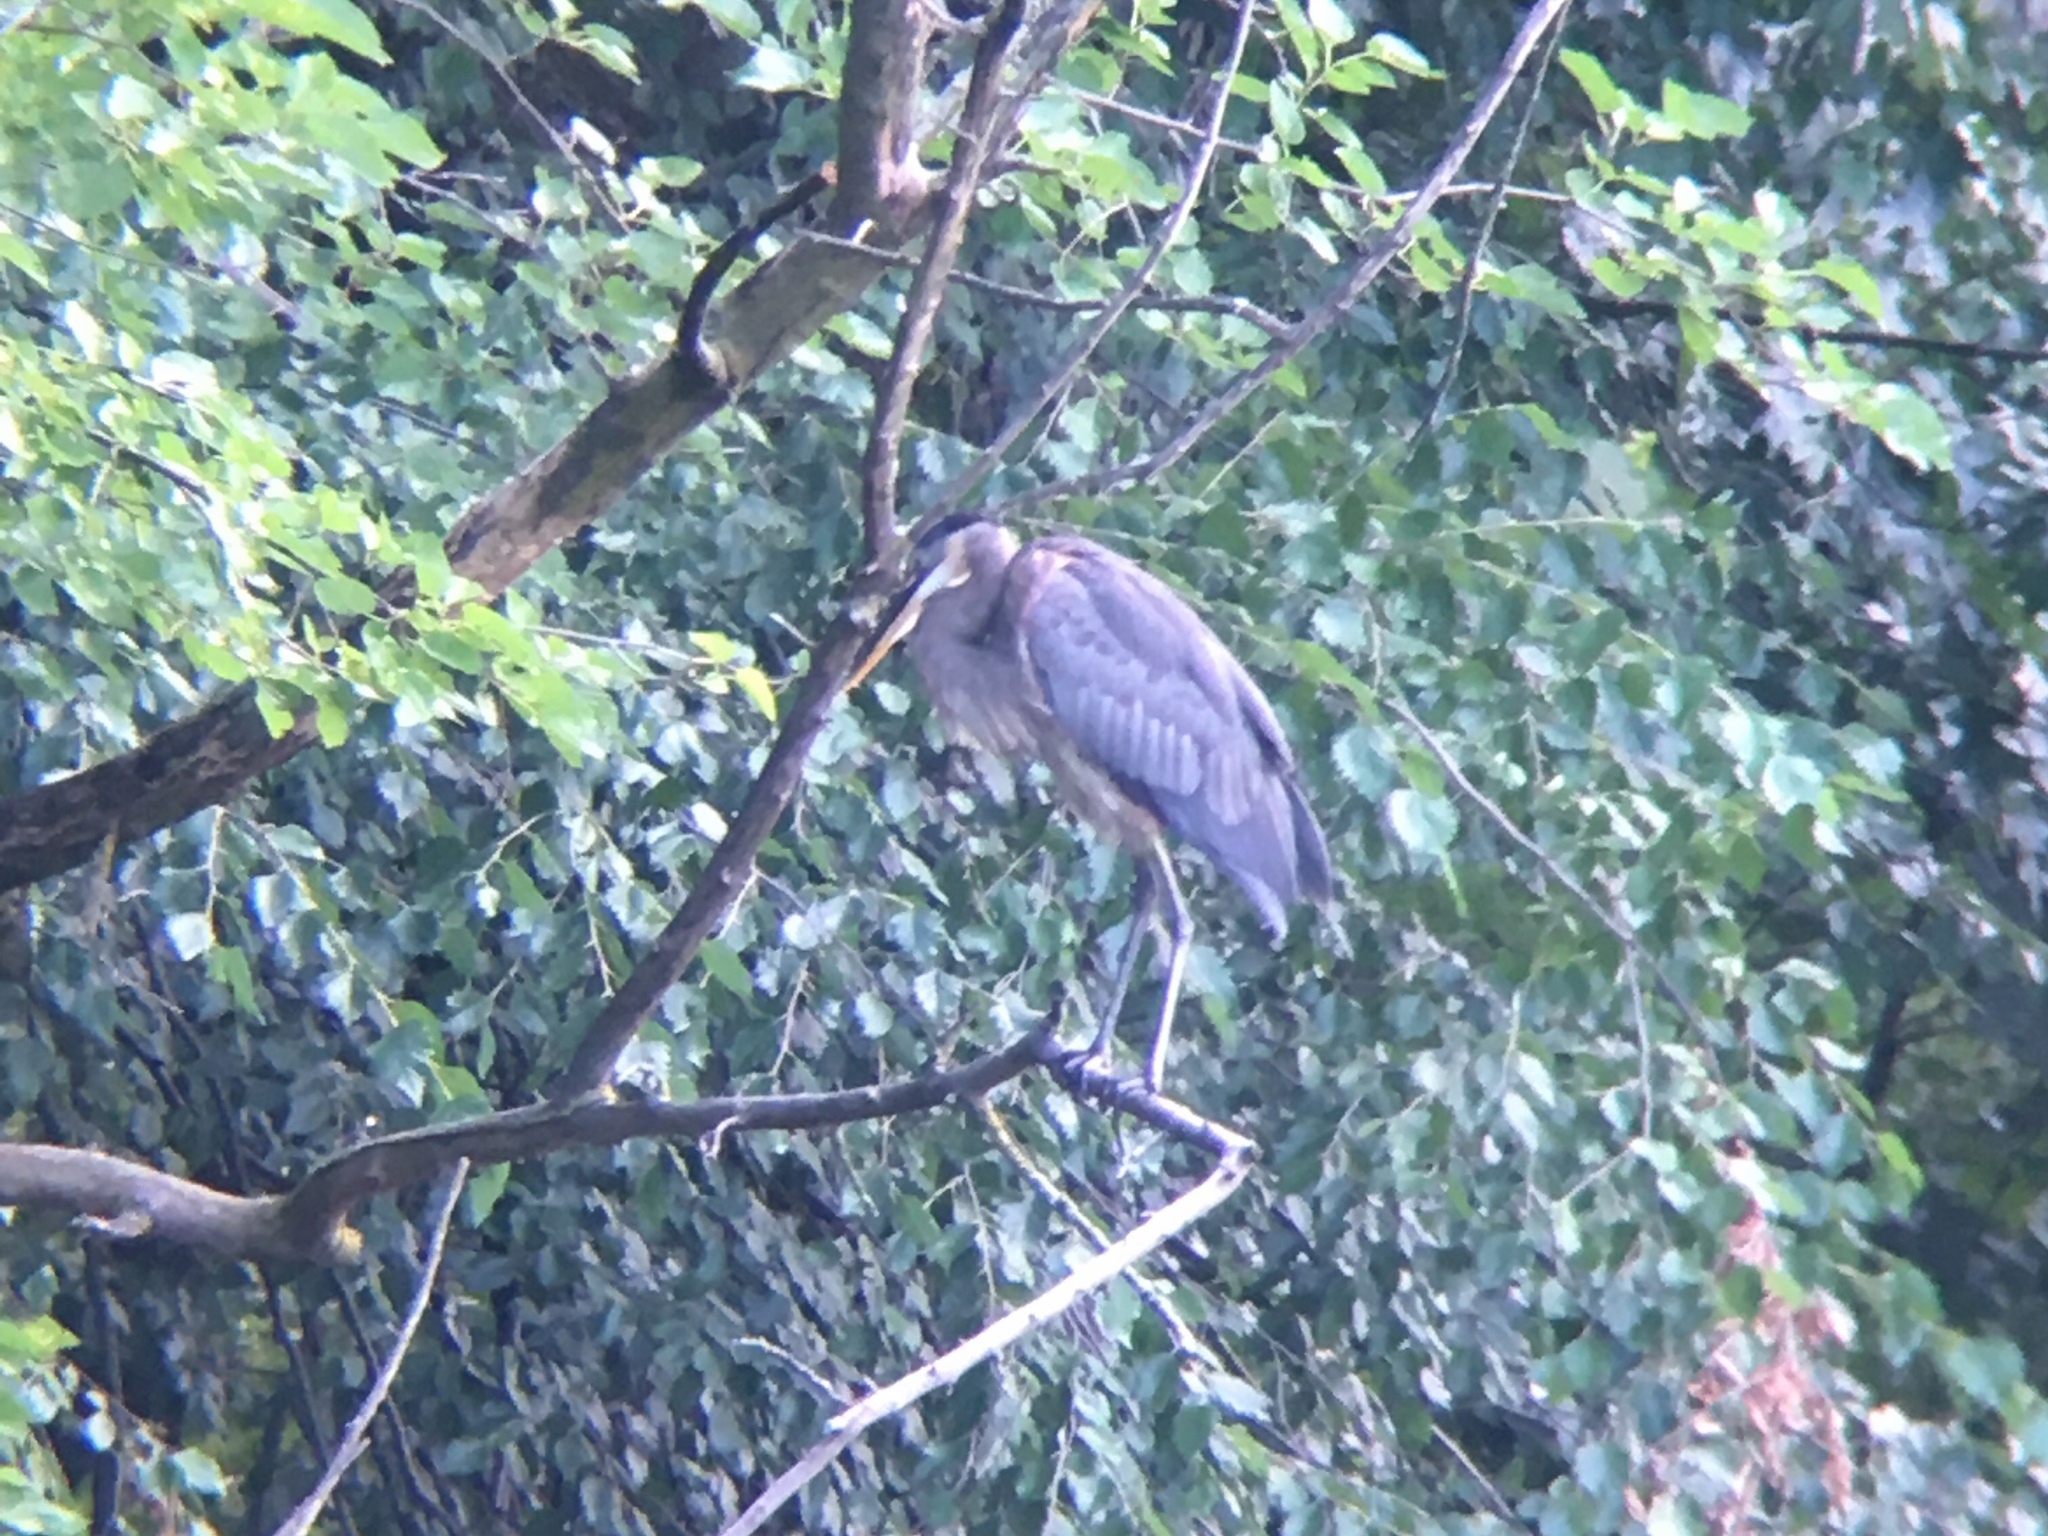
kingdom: Animalia
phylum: Chordata
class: Aves
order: Pelecaniformes
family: Ardeidae
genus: Ardea
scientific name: Ardea herodias
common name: Great blue heron
